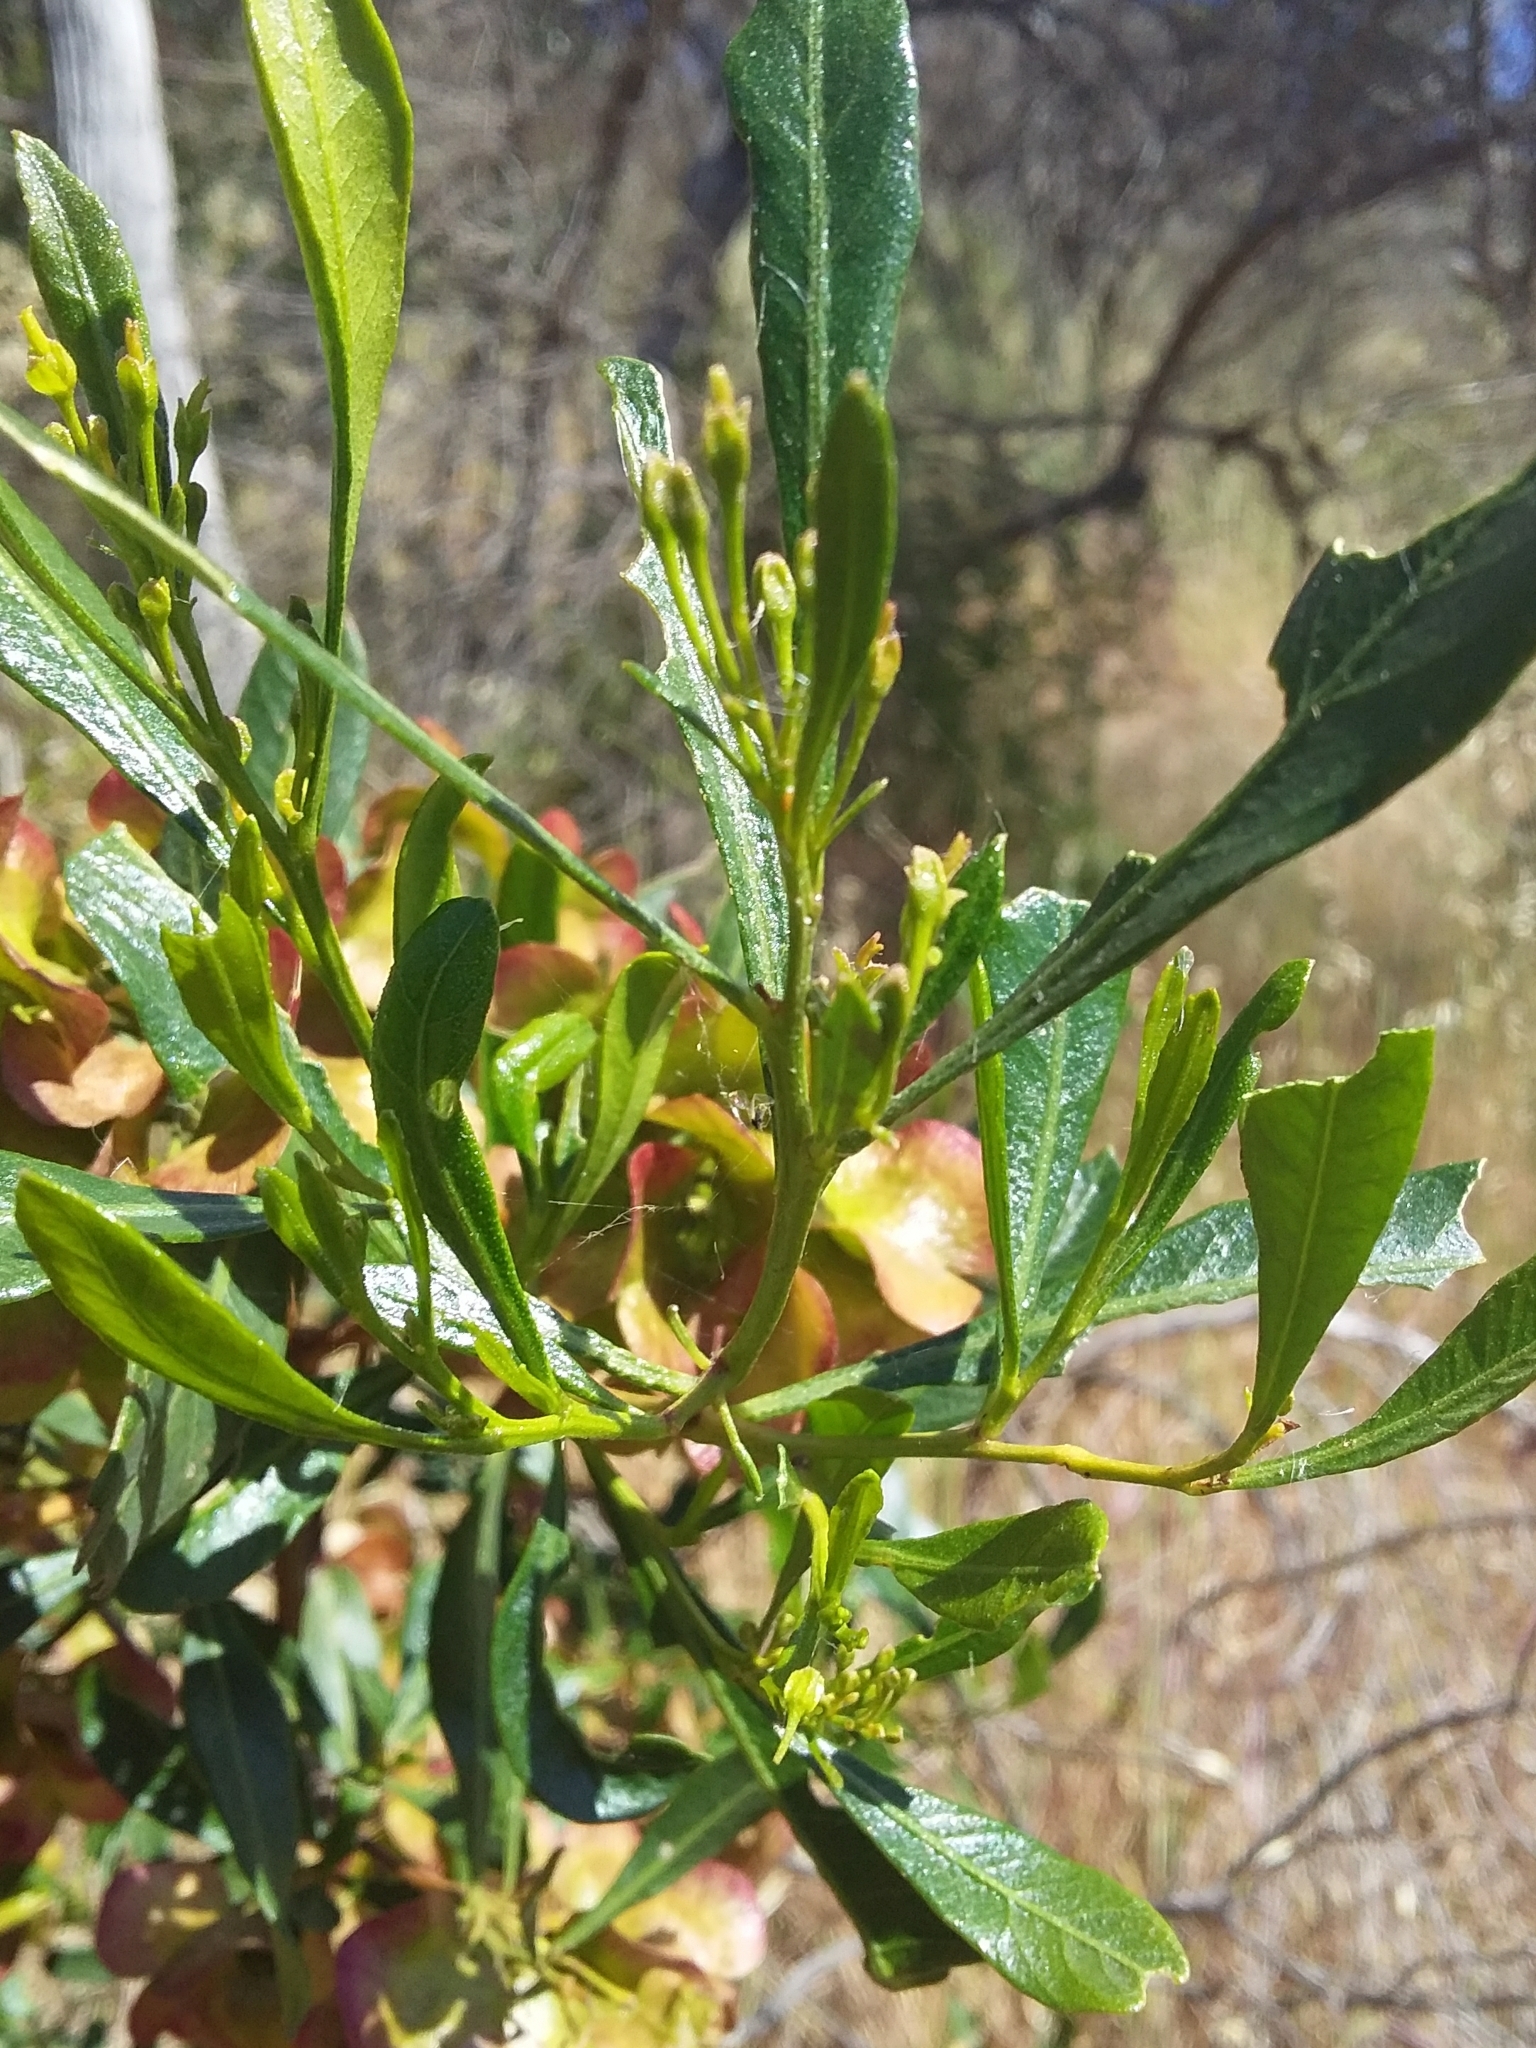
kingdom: Plantae
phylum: Tracheophyta
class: Magnoliopsida
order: Sapindales
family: Sapindaceae
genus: Dodonaea
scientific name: Dodonaea viscosa
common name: Hopbush
